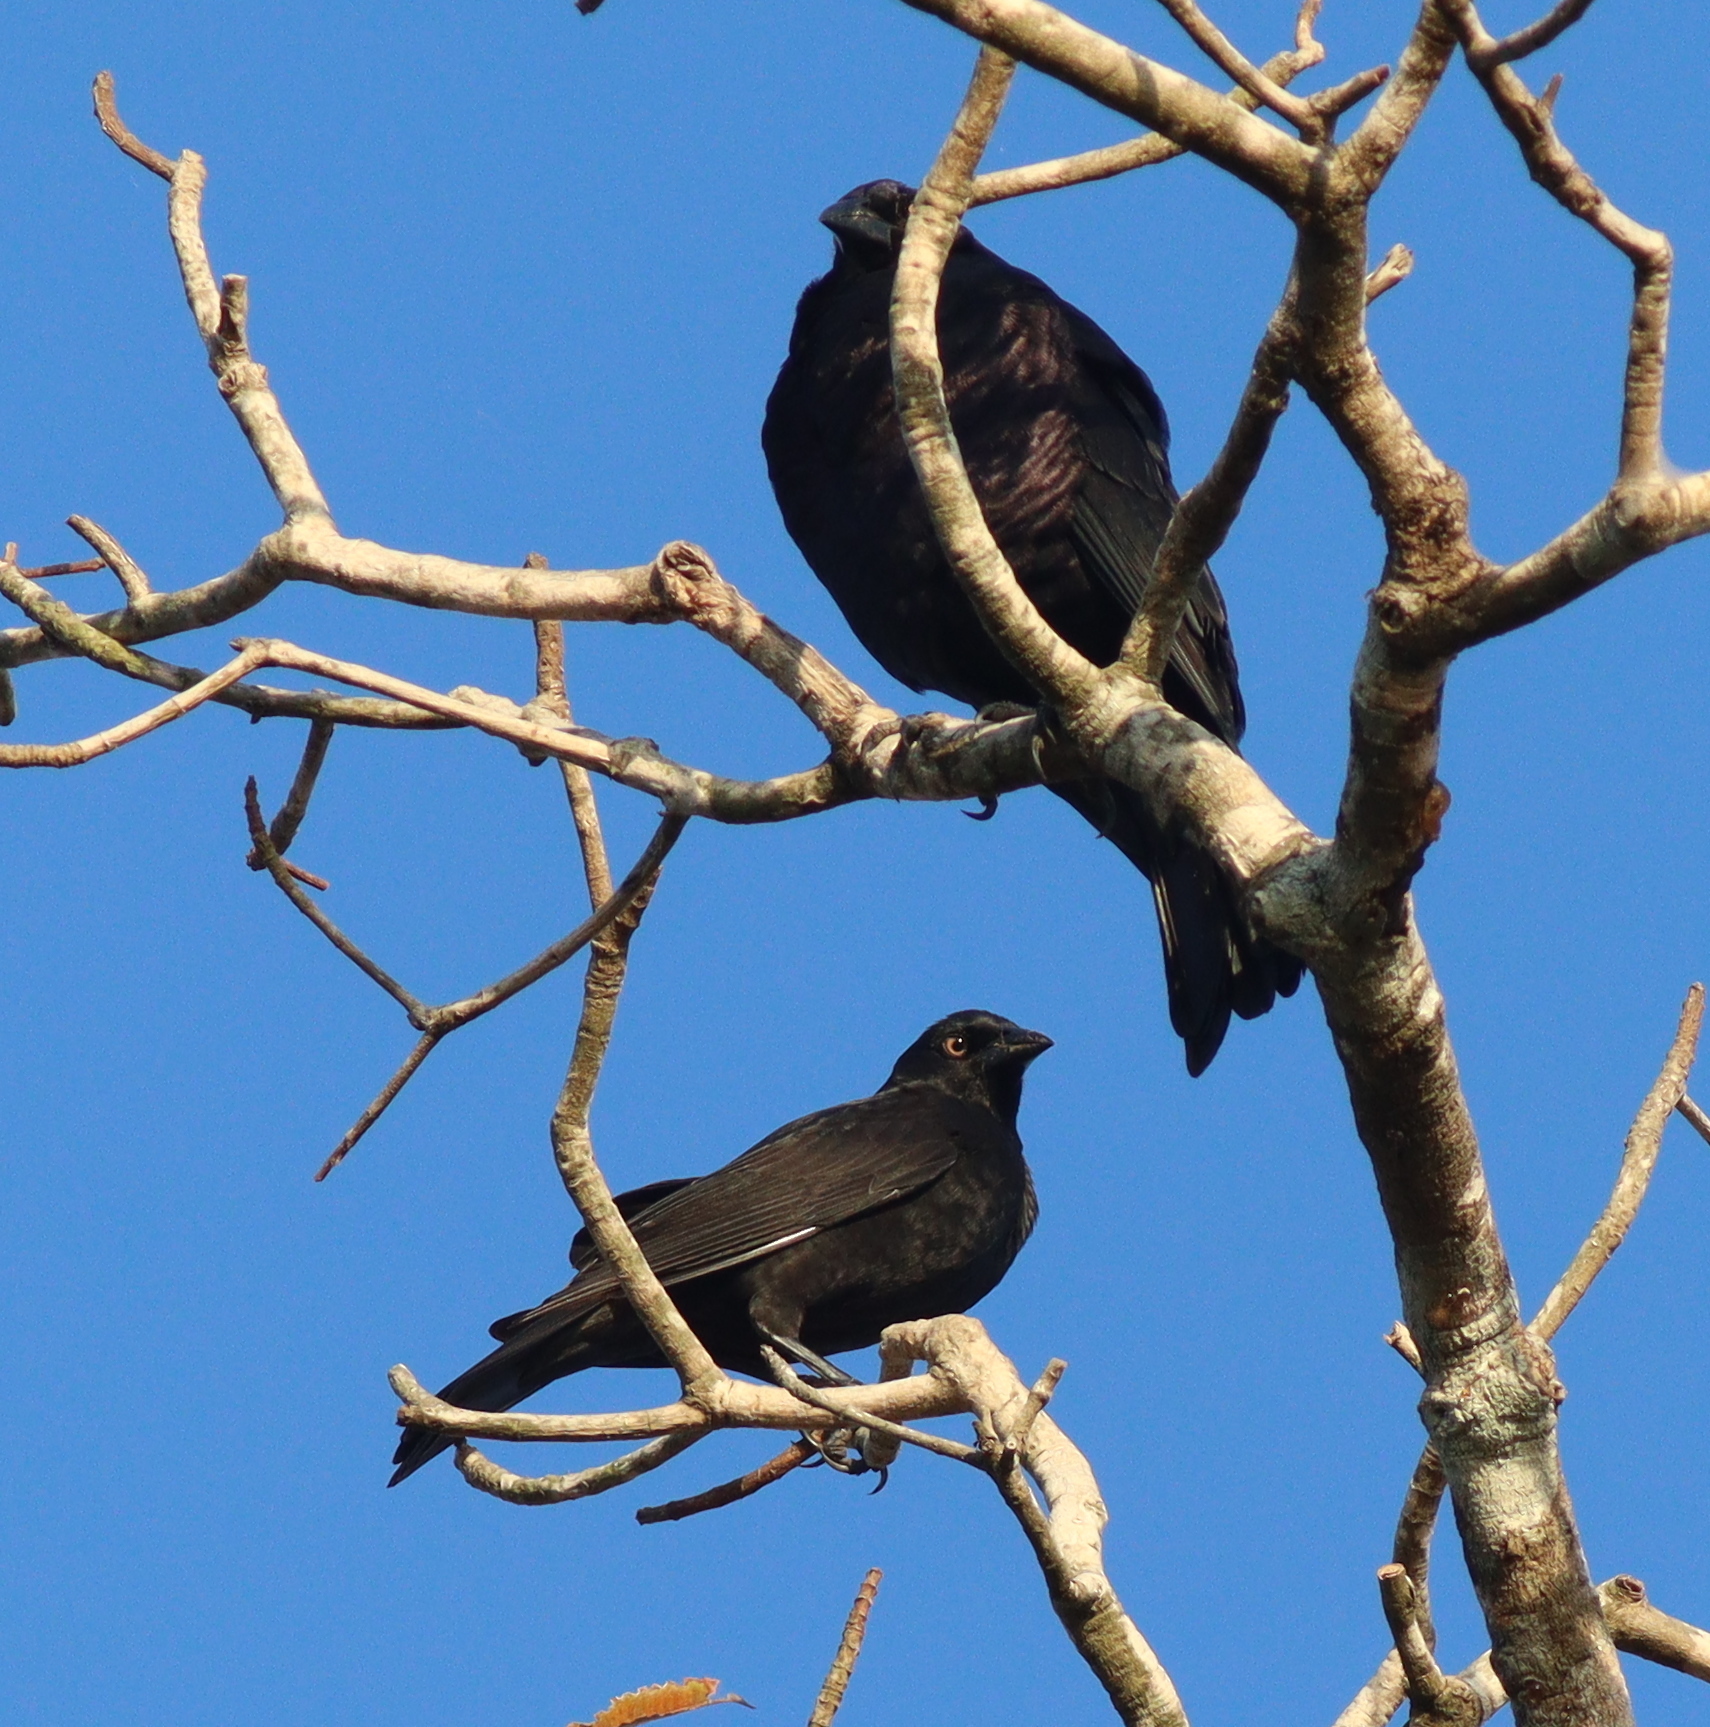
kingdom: Animalia
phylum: Chordata
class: Aves
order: Passeriformes
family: Icteridae
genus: Molothrus
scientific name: Molothrus oryzivorus
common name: Giant cowbird
